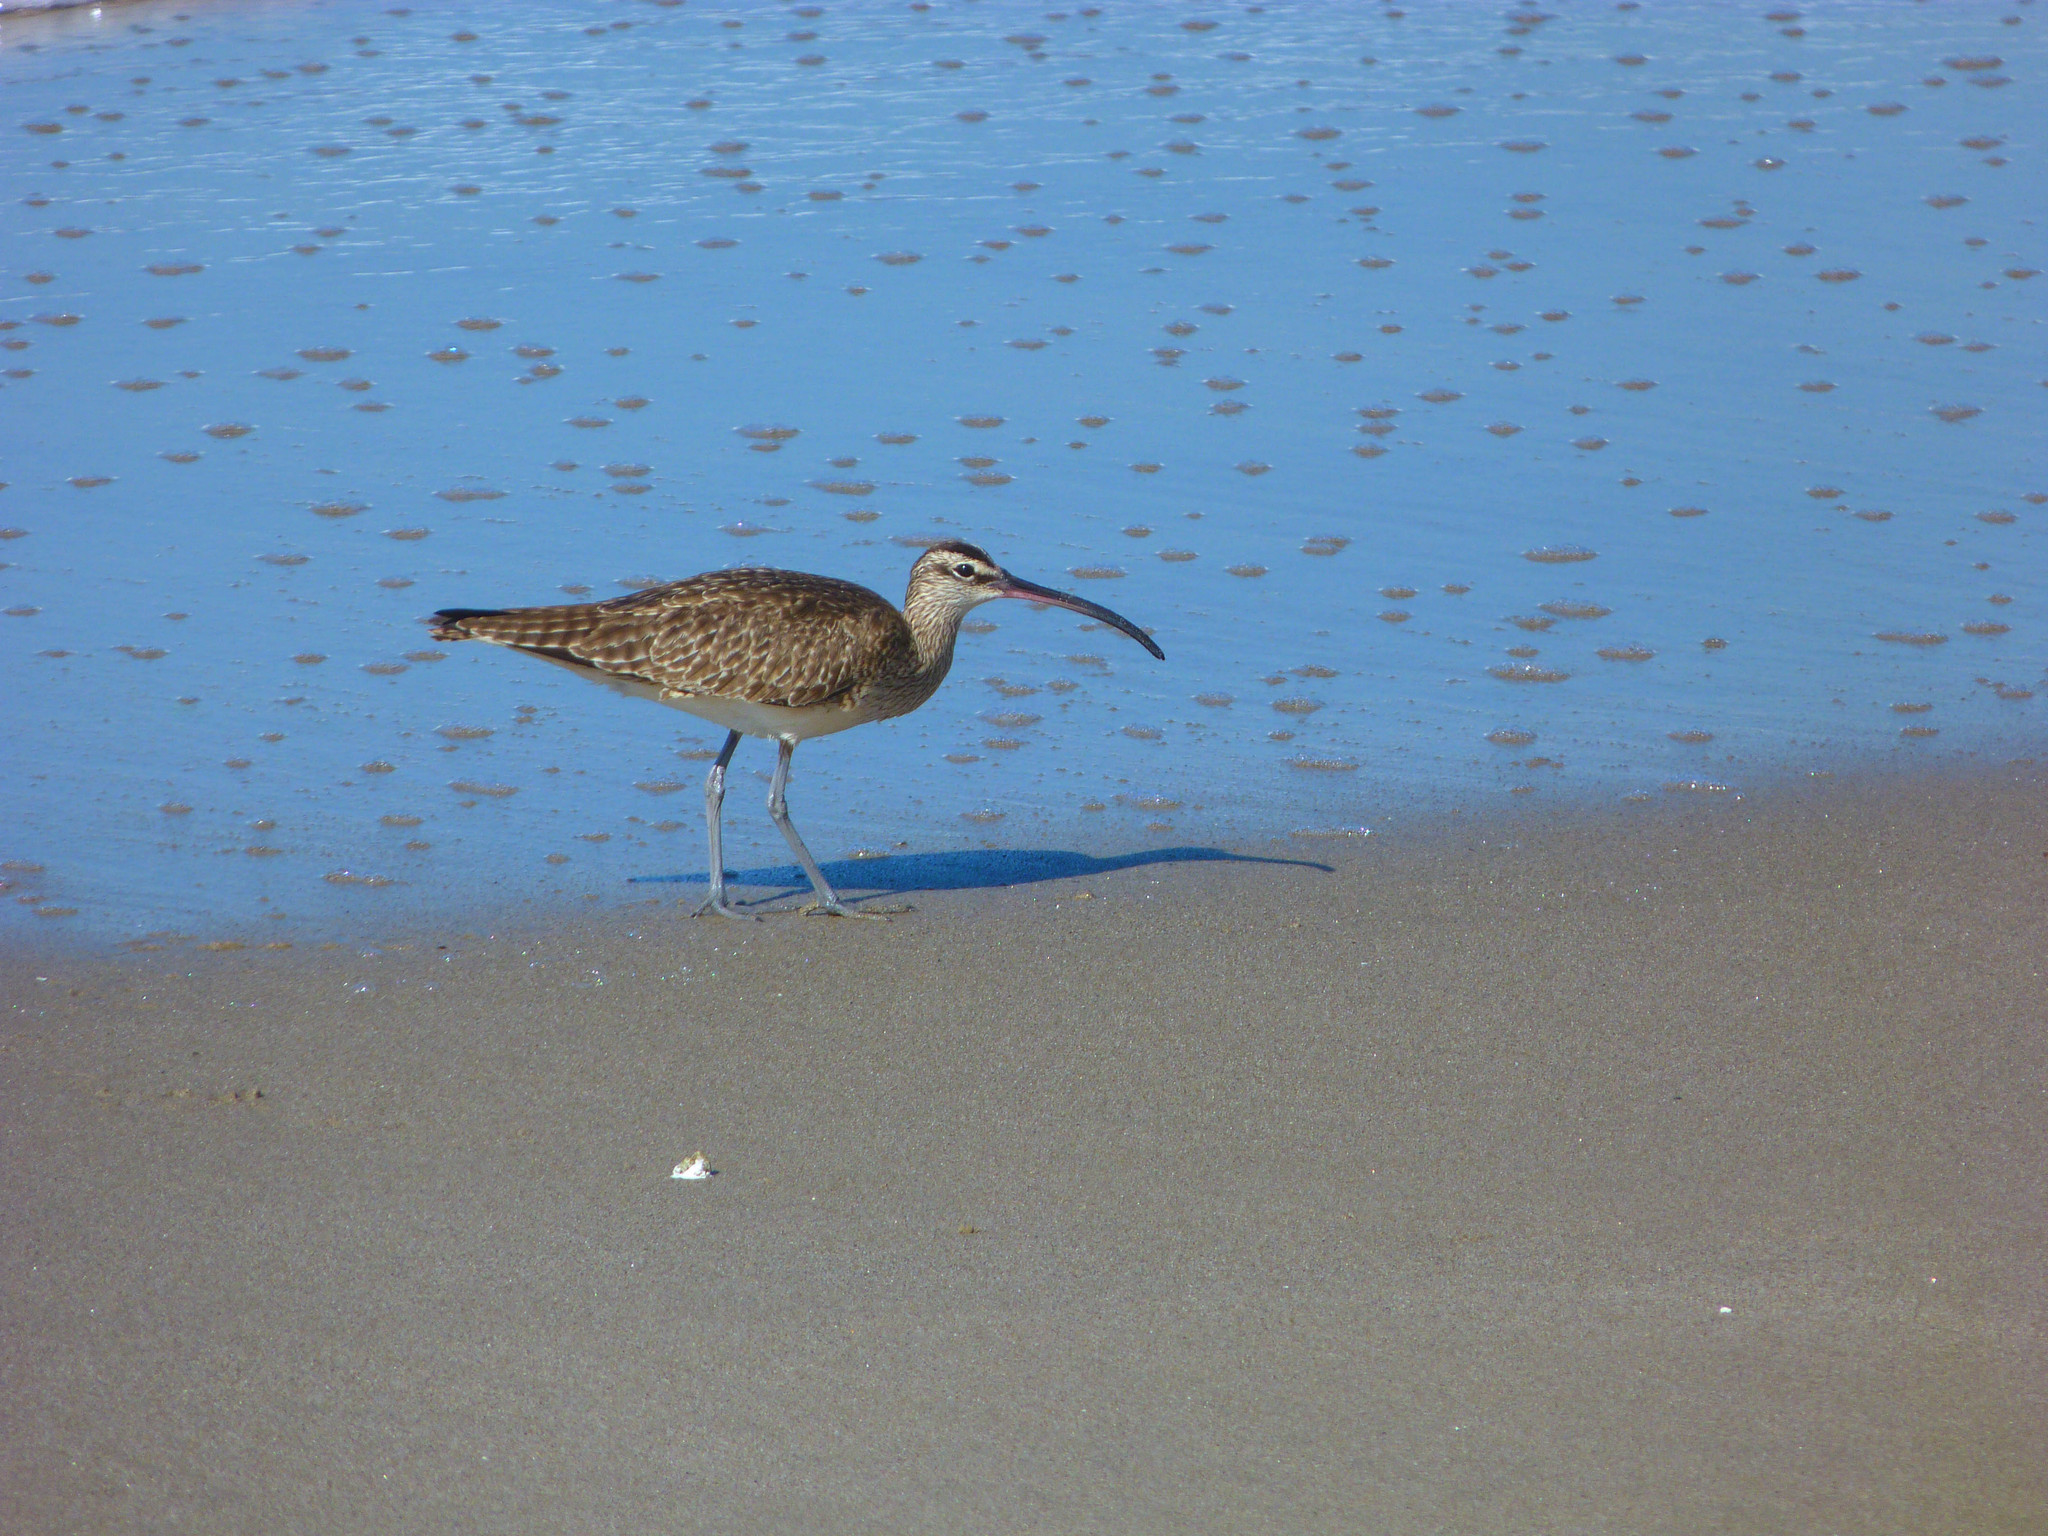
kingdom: Animalia
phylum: Chordata
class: Aves
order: Charadriiformes
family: Scolopacidae
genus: Numenius
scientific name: Numenius phaeopus
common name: Whimbrel
